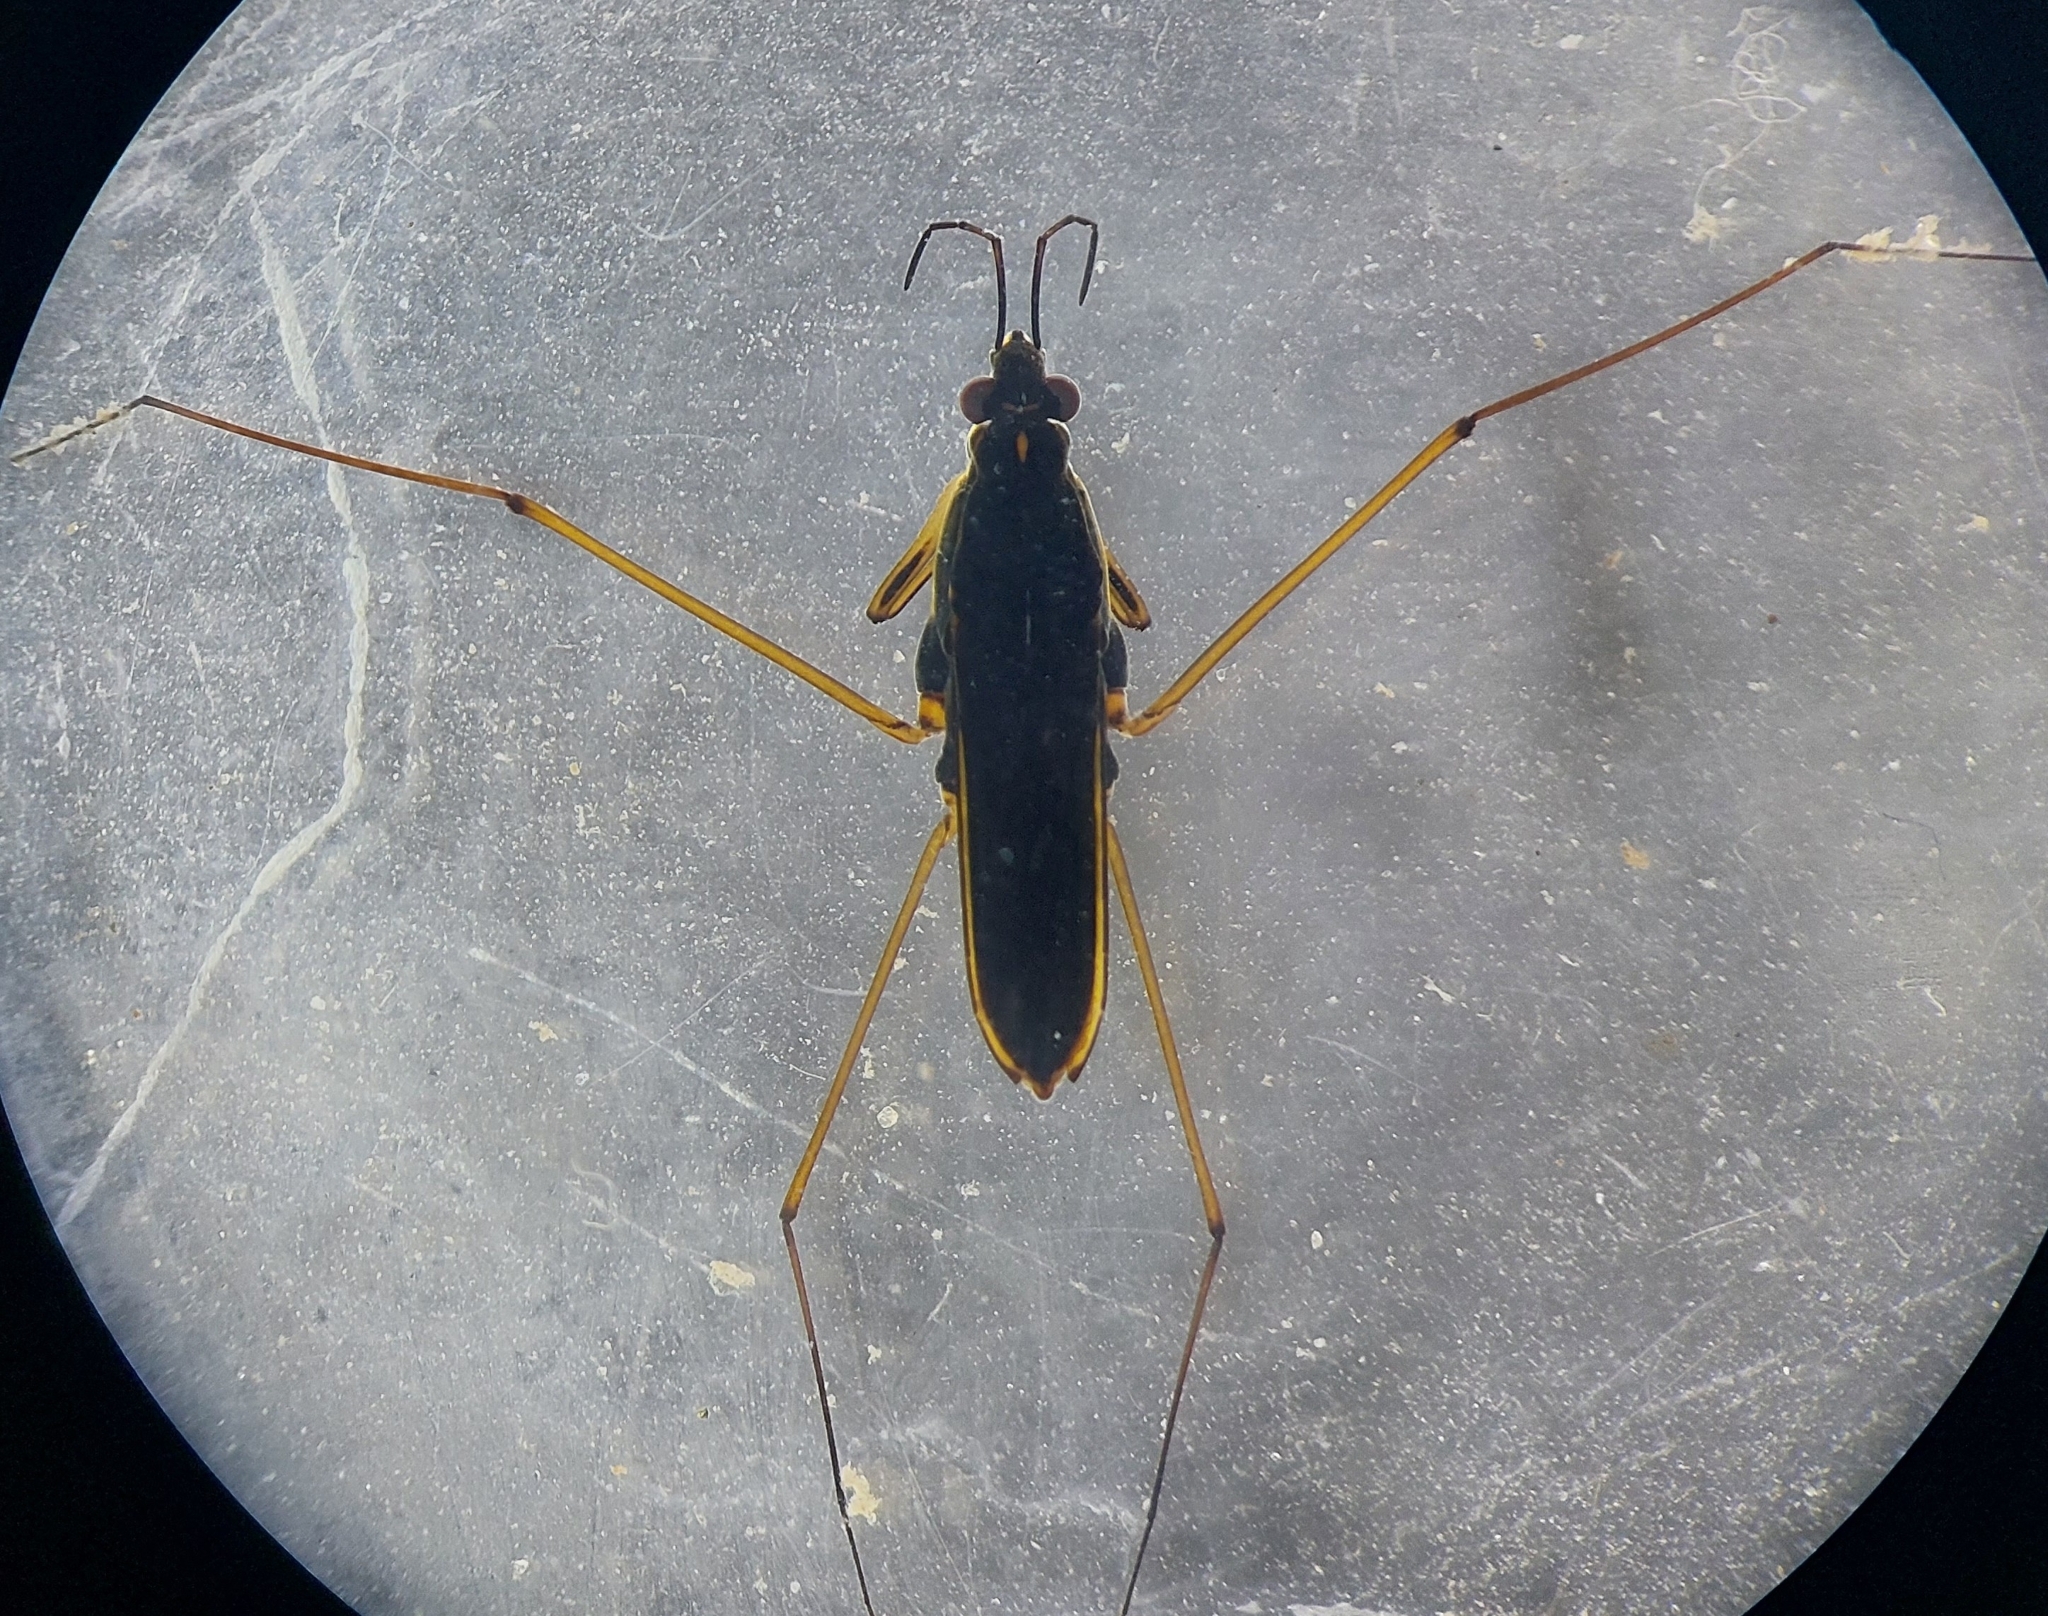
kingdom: Animalia
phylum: Arthropoda
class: Insecta
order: Hemiptera
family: Gerridae
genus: Gerris
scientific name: Gerris lacustris
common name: Common pondskater
